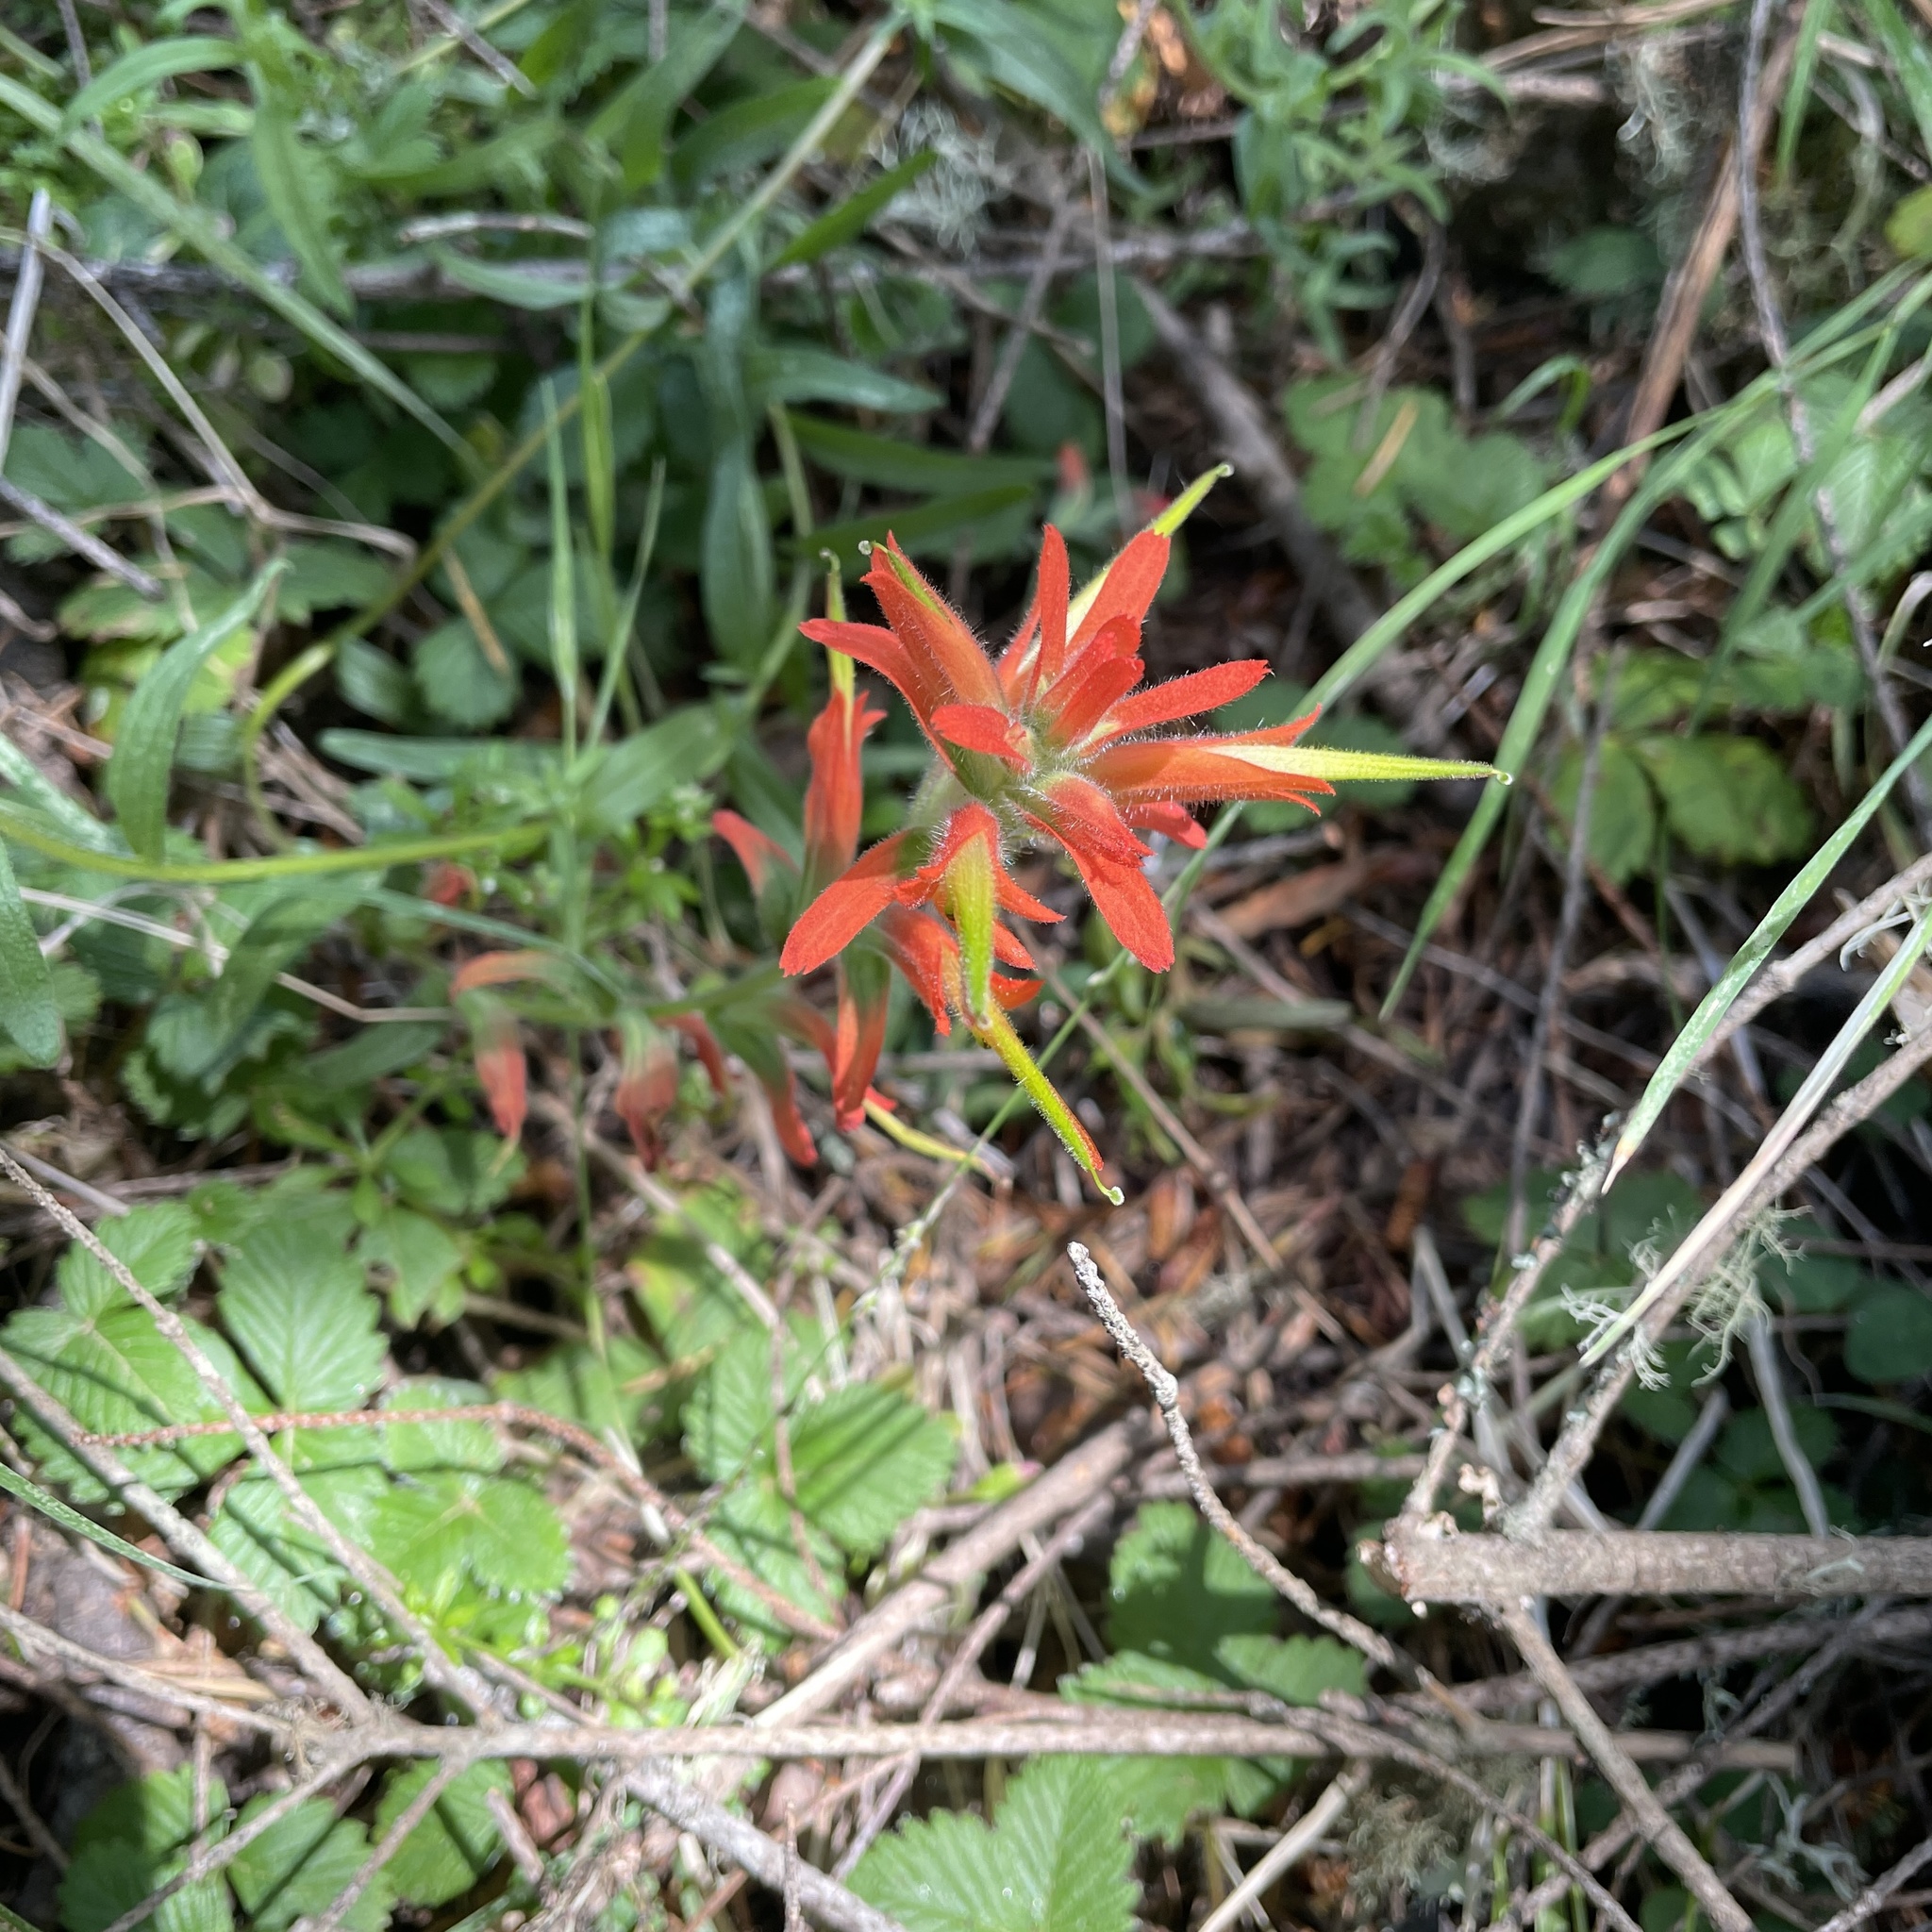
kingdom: Plantae
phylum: Tracheophyta
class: Magnoliopsida
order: Lamiales
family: Orobanchaceae
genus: Castilleja
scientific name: Castilleja subinclusa
